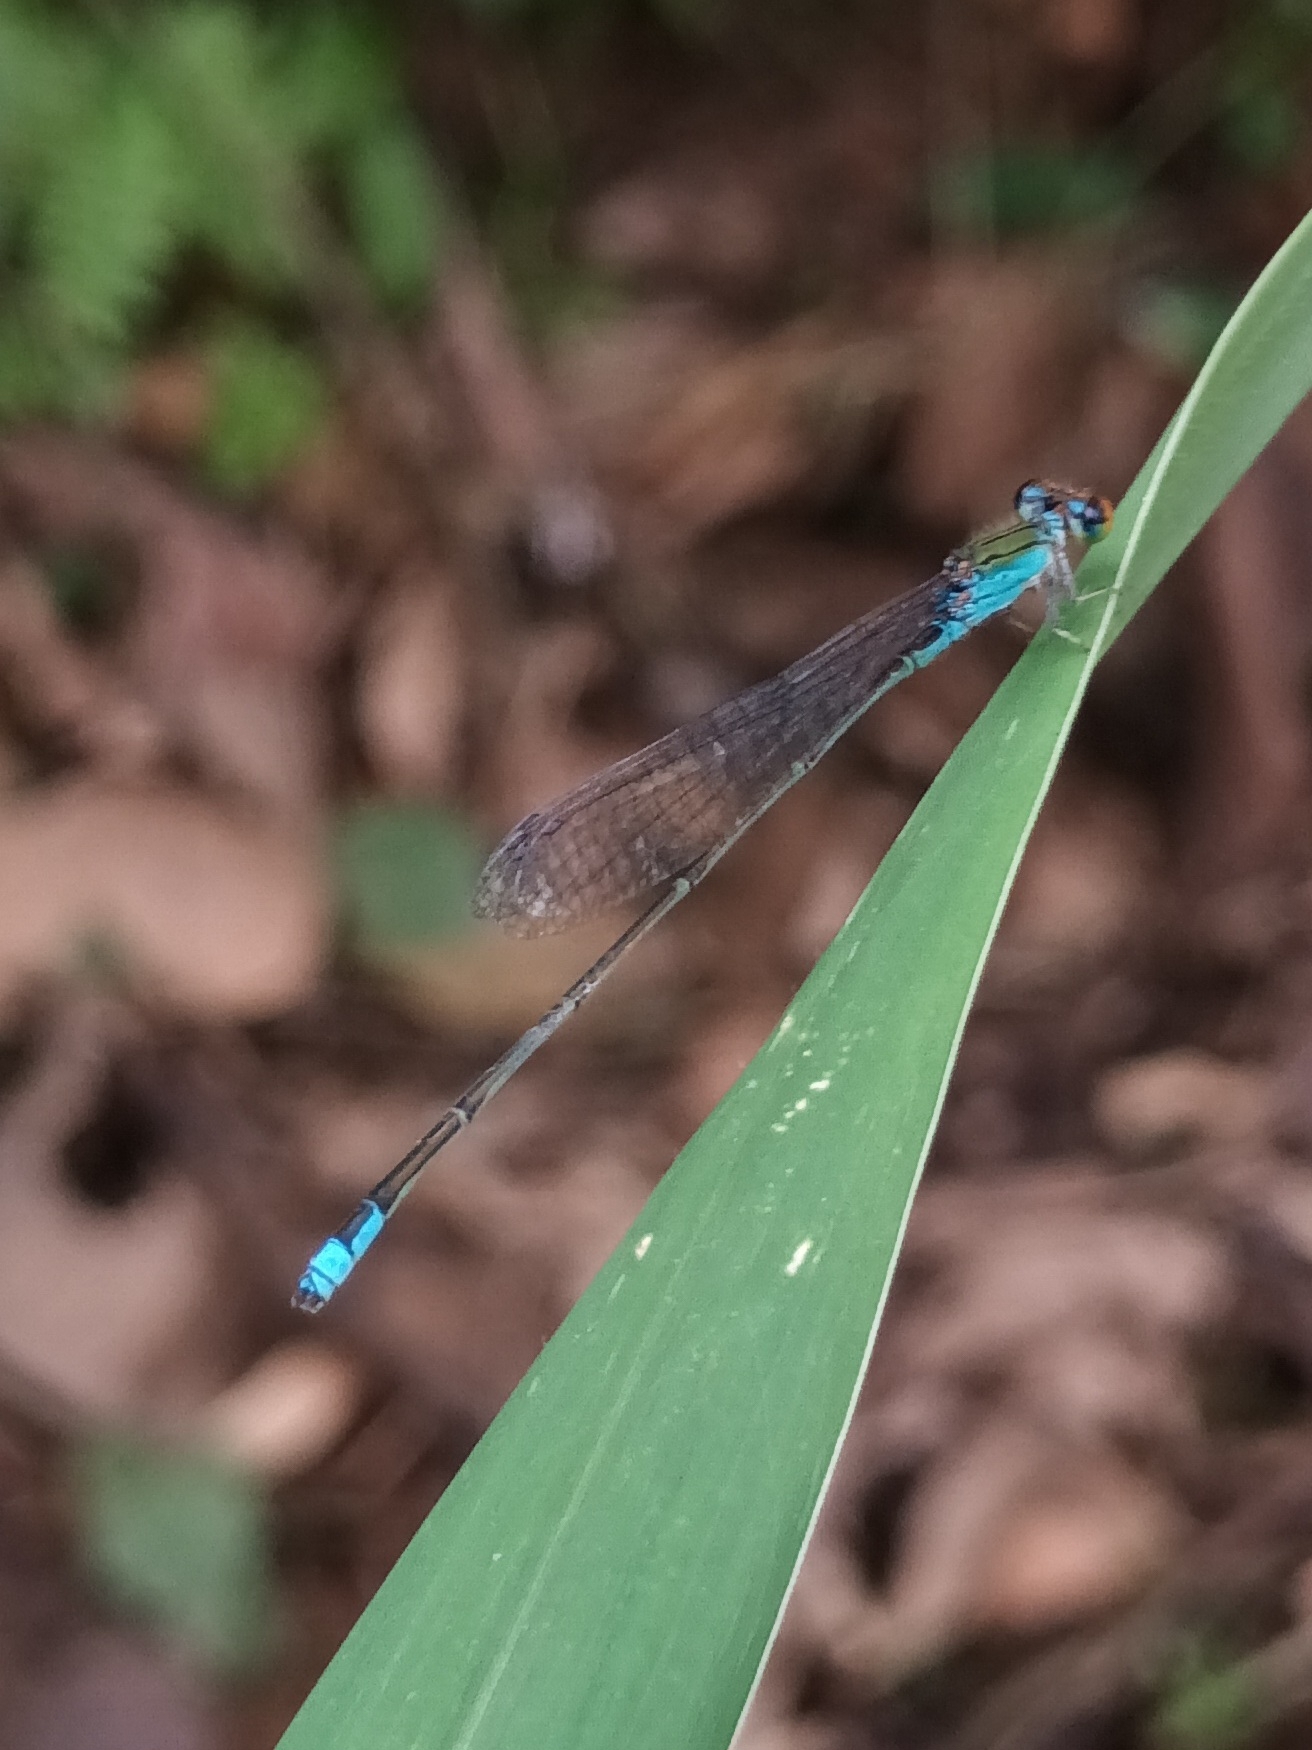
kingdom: Animalia
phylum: Arthropoda
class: Insecta
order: Odonata
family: Coenagrionidae
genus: Pseudagrion
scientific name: Pseudagrion rubriceps
